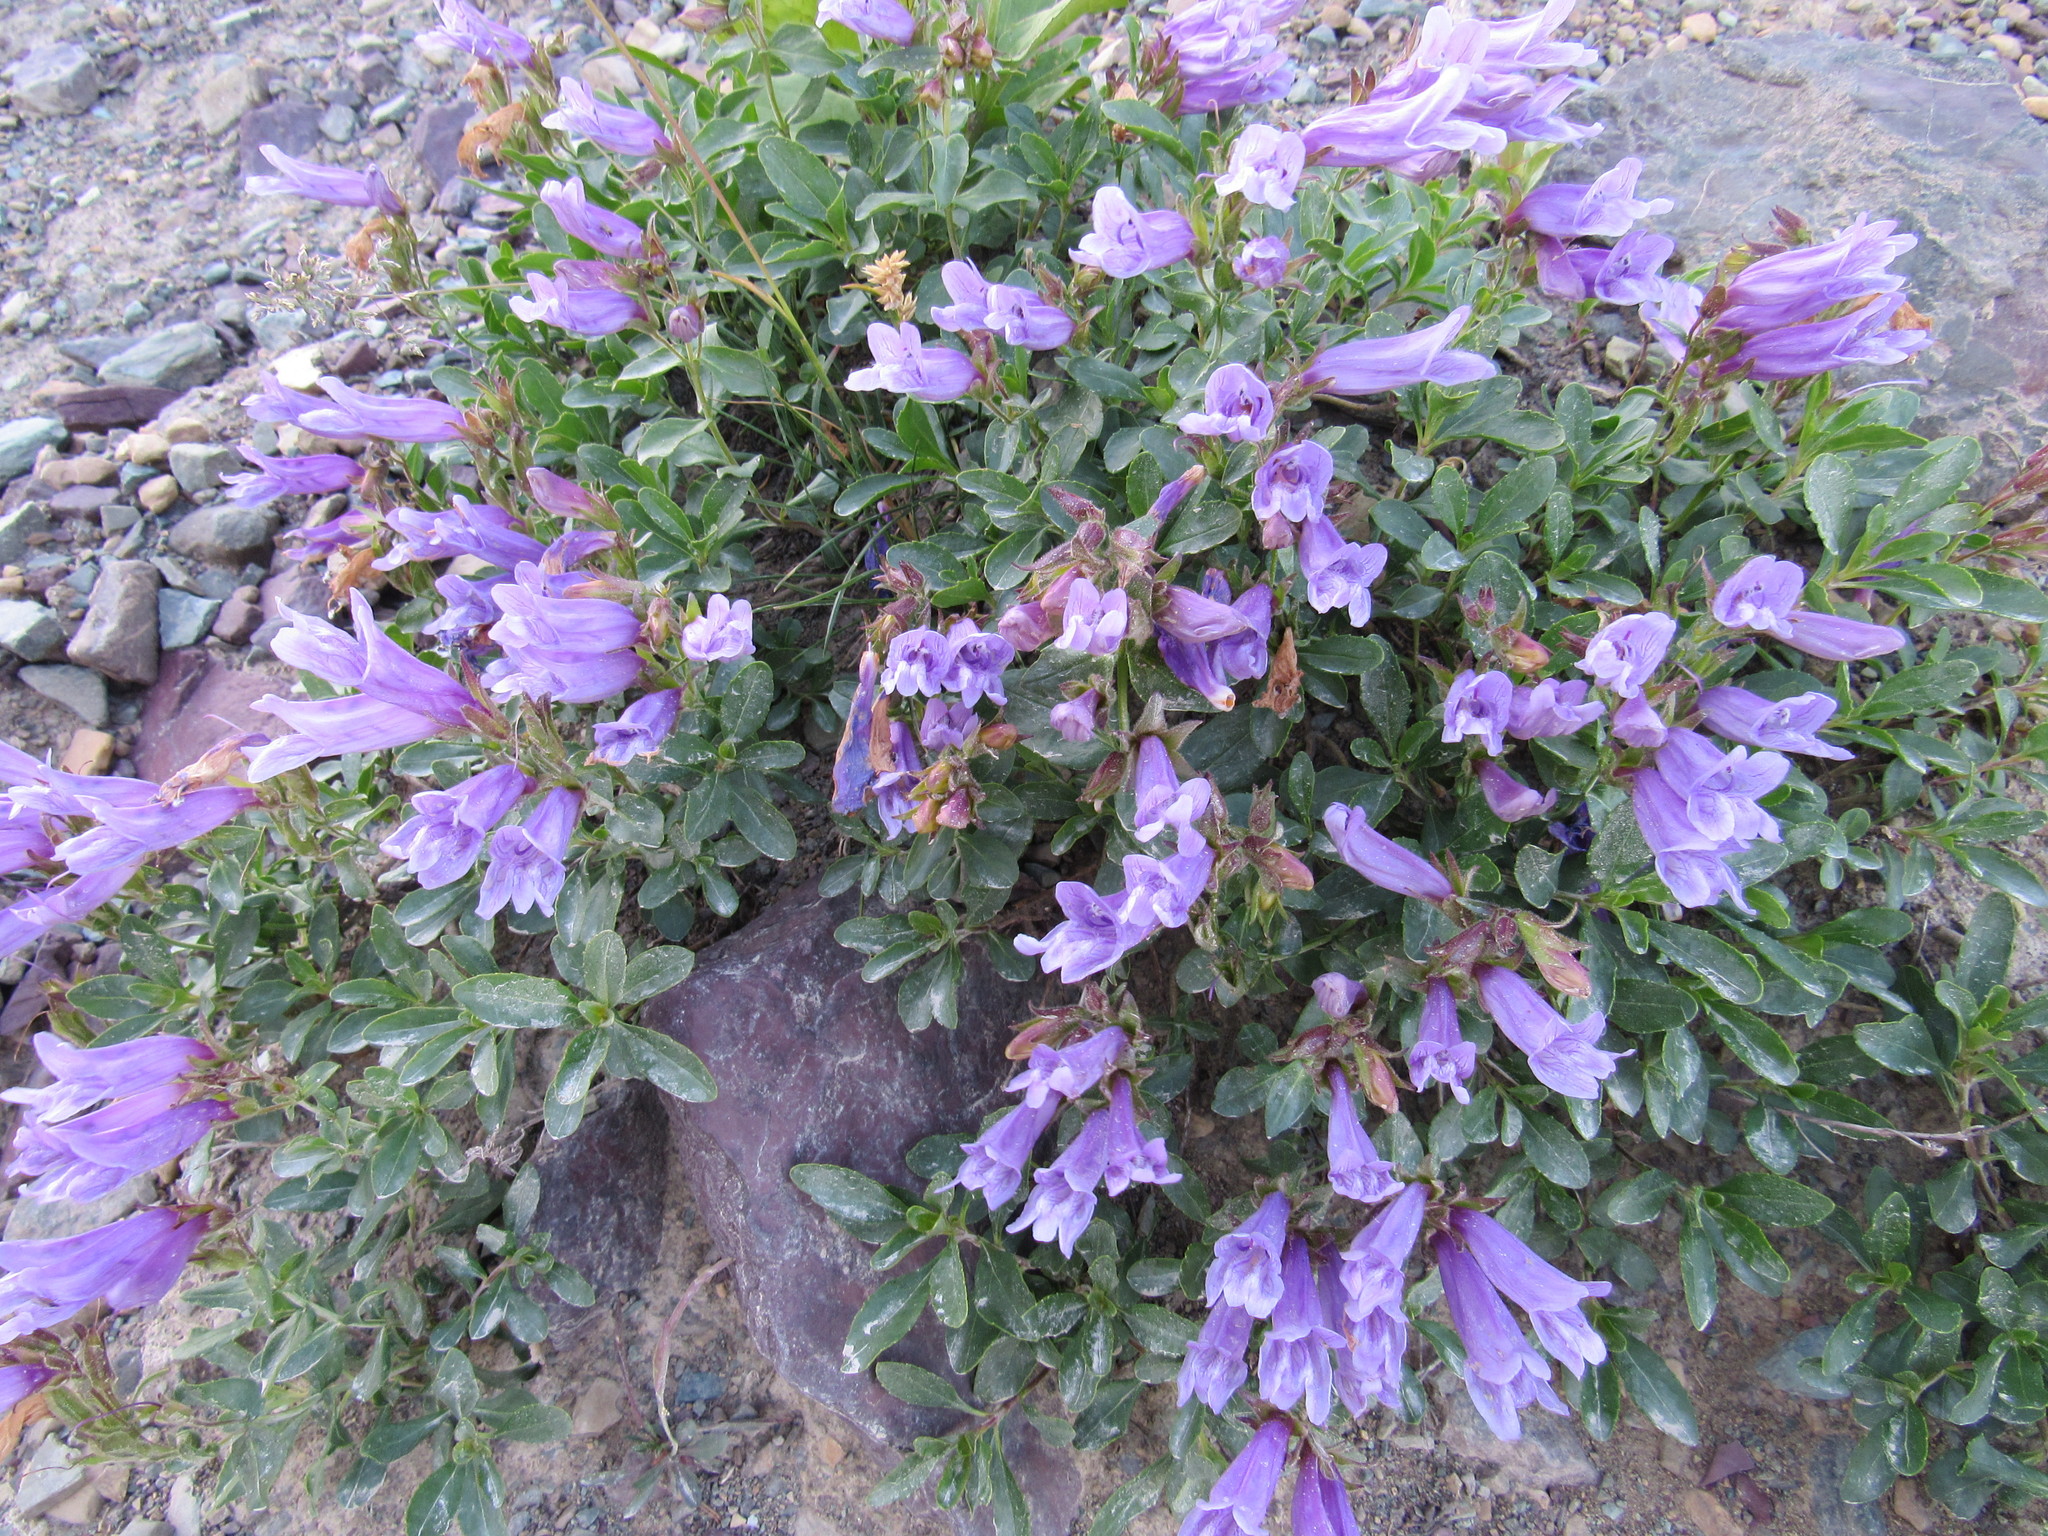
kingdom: Plantae
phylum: Tracheophyta
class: Magnoliopsida
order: Lamiales
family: Plantaginaceae
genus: Penstemon
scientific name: Penstemon ellipticus
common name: Alpine beardtongue
